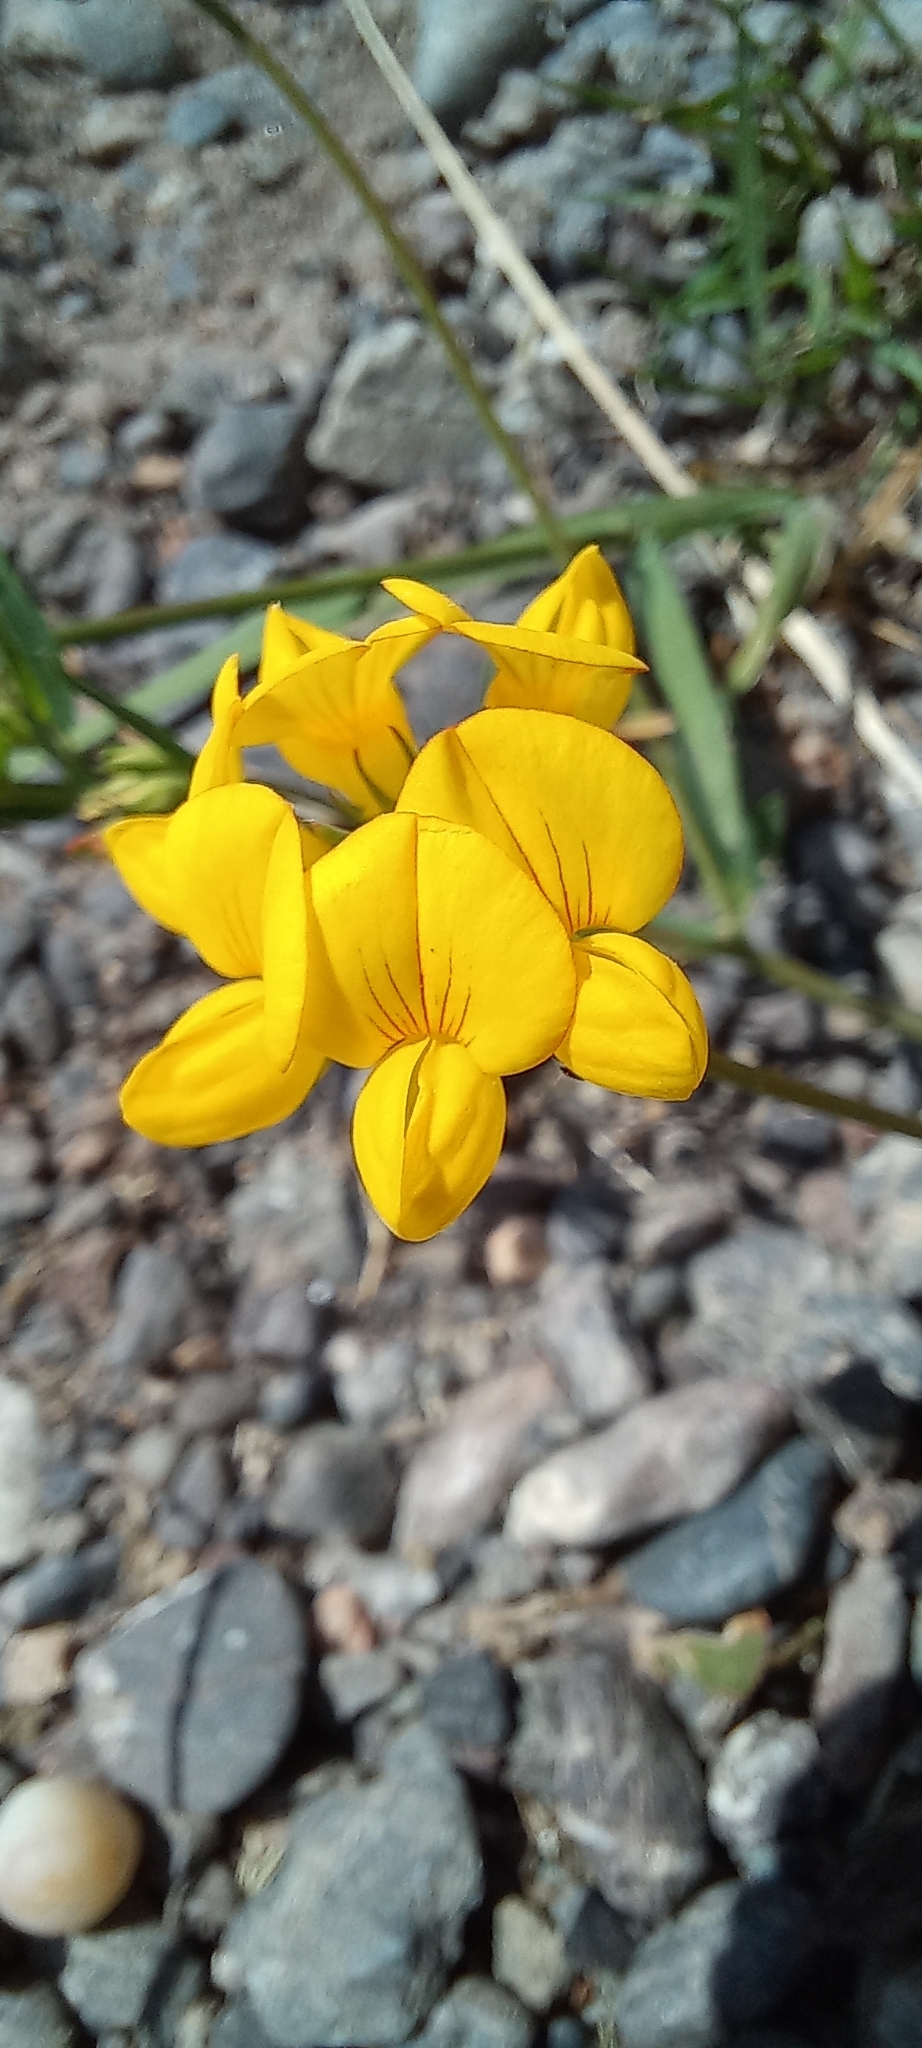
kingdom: Plantae
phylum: Tracheophyta
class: Magnoliopsida
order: Fabales
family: Fabaceae
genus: Lotus
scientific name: Lotus tenuis
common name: Narrow-leaved bird's-foot-trefoil
